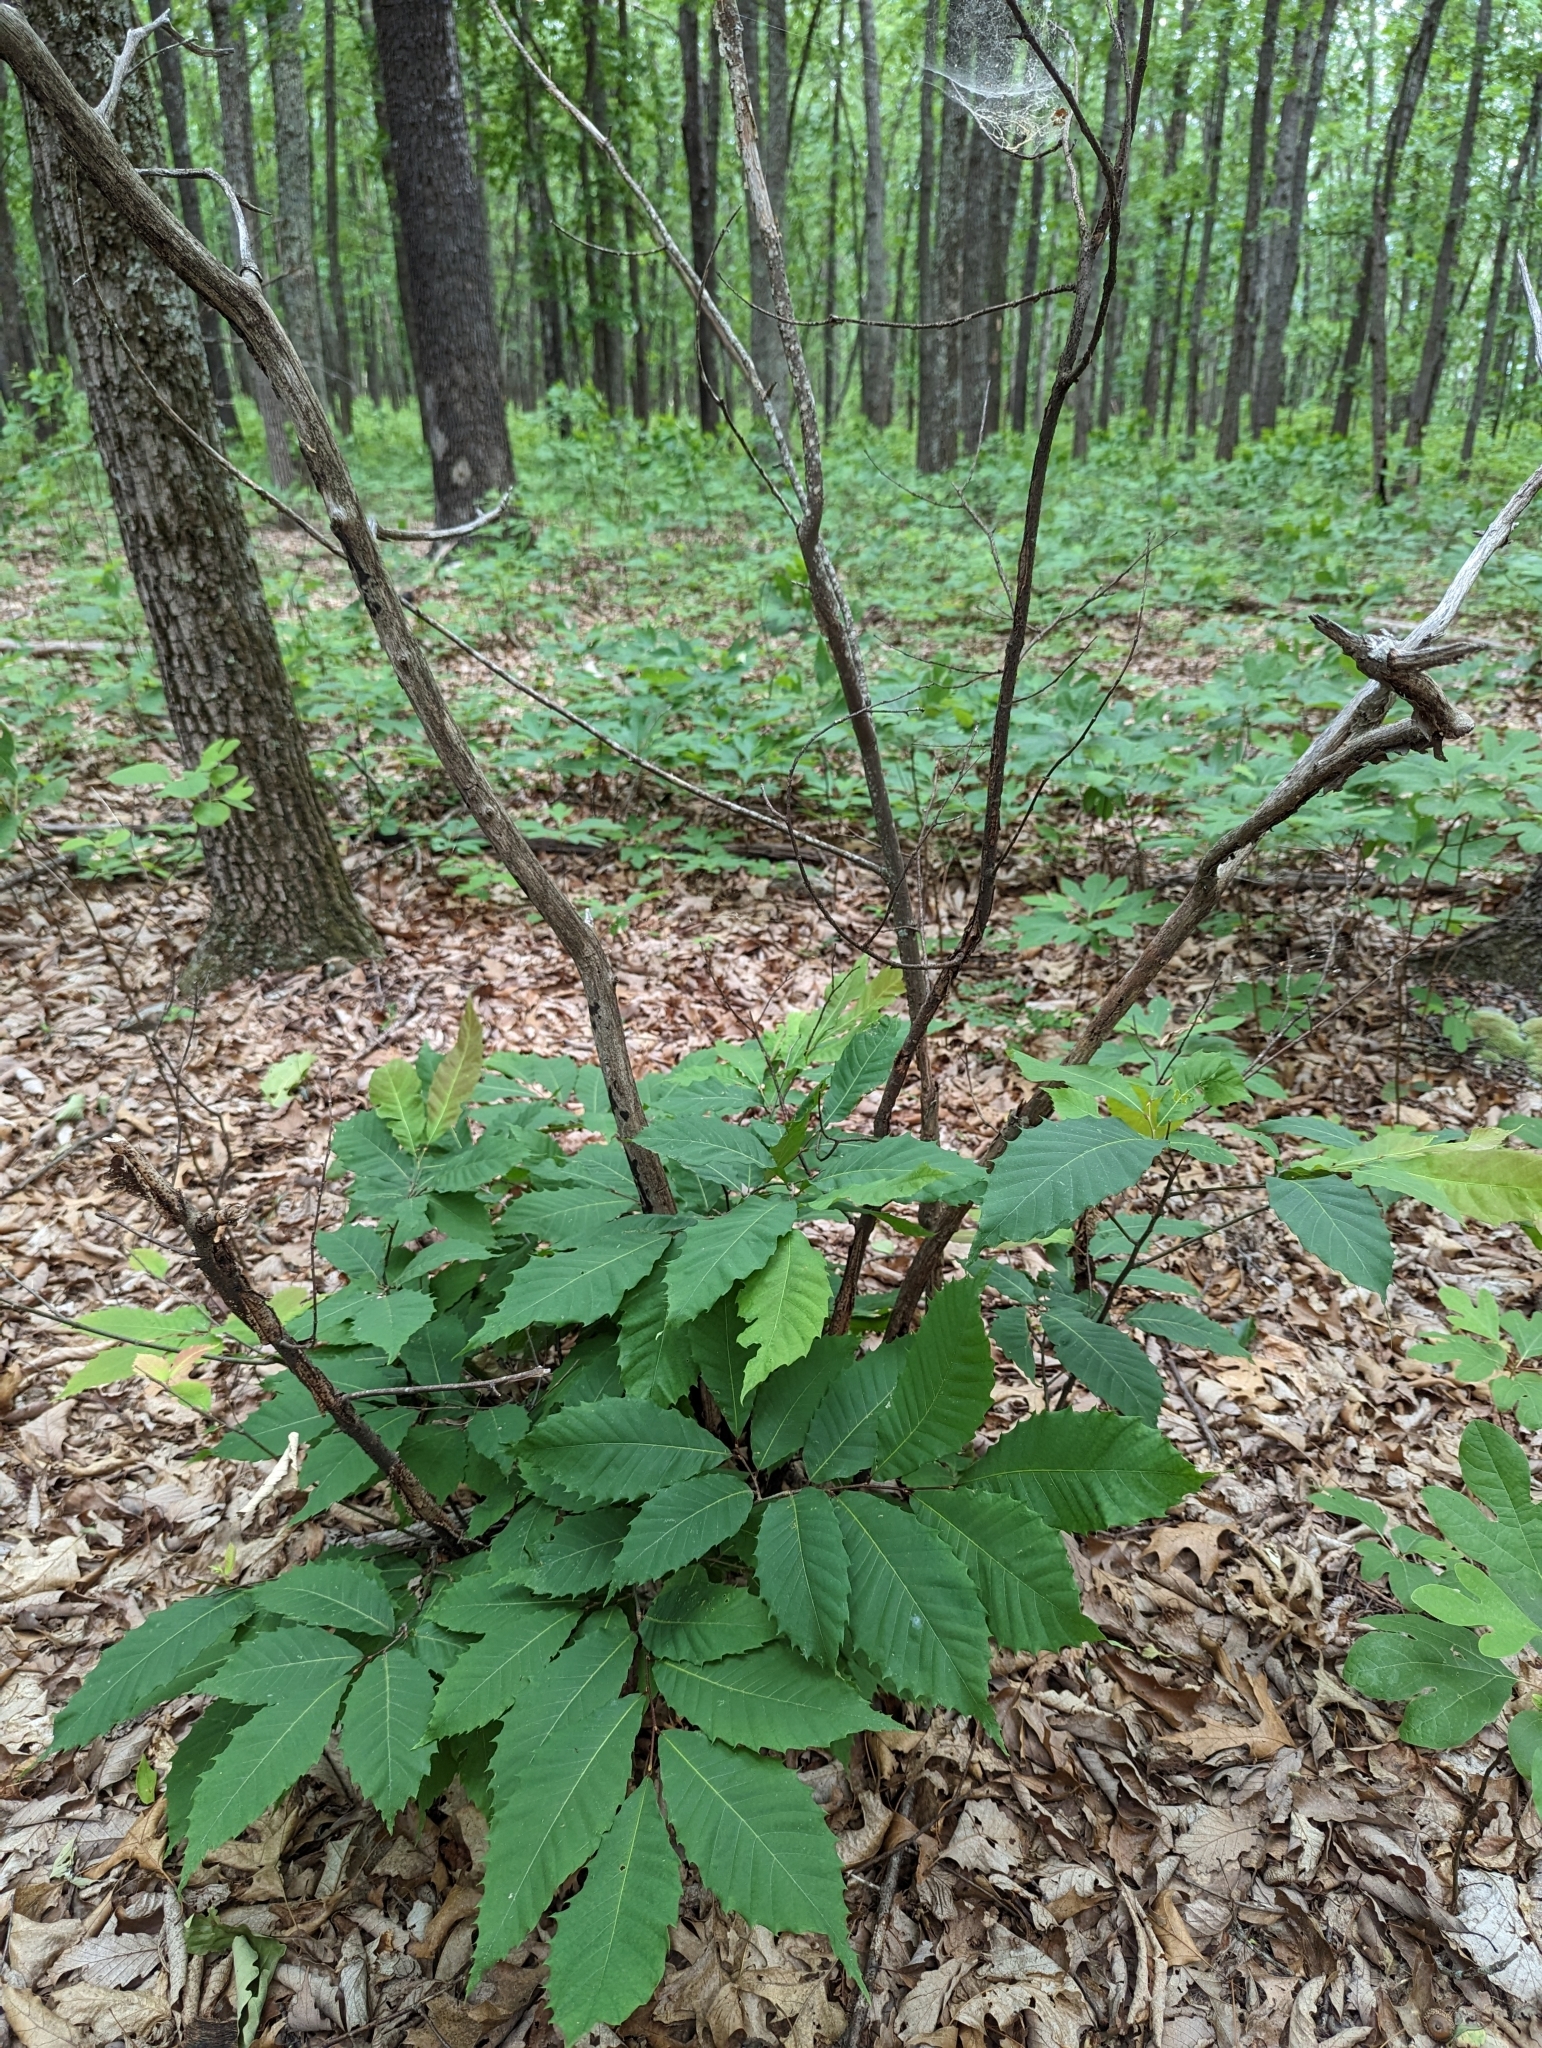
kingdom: Plantae
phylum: Tracheophyta
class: Magnoliopsida
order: Fagales
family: Fagaceae
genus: Castanea
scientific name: Castanea dentata
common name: American chestnut
